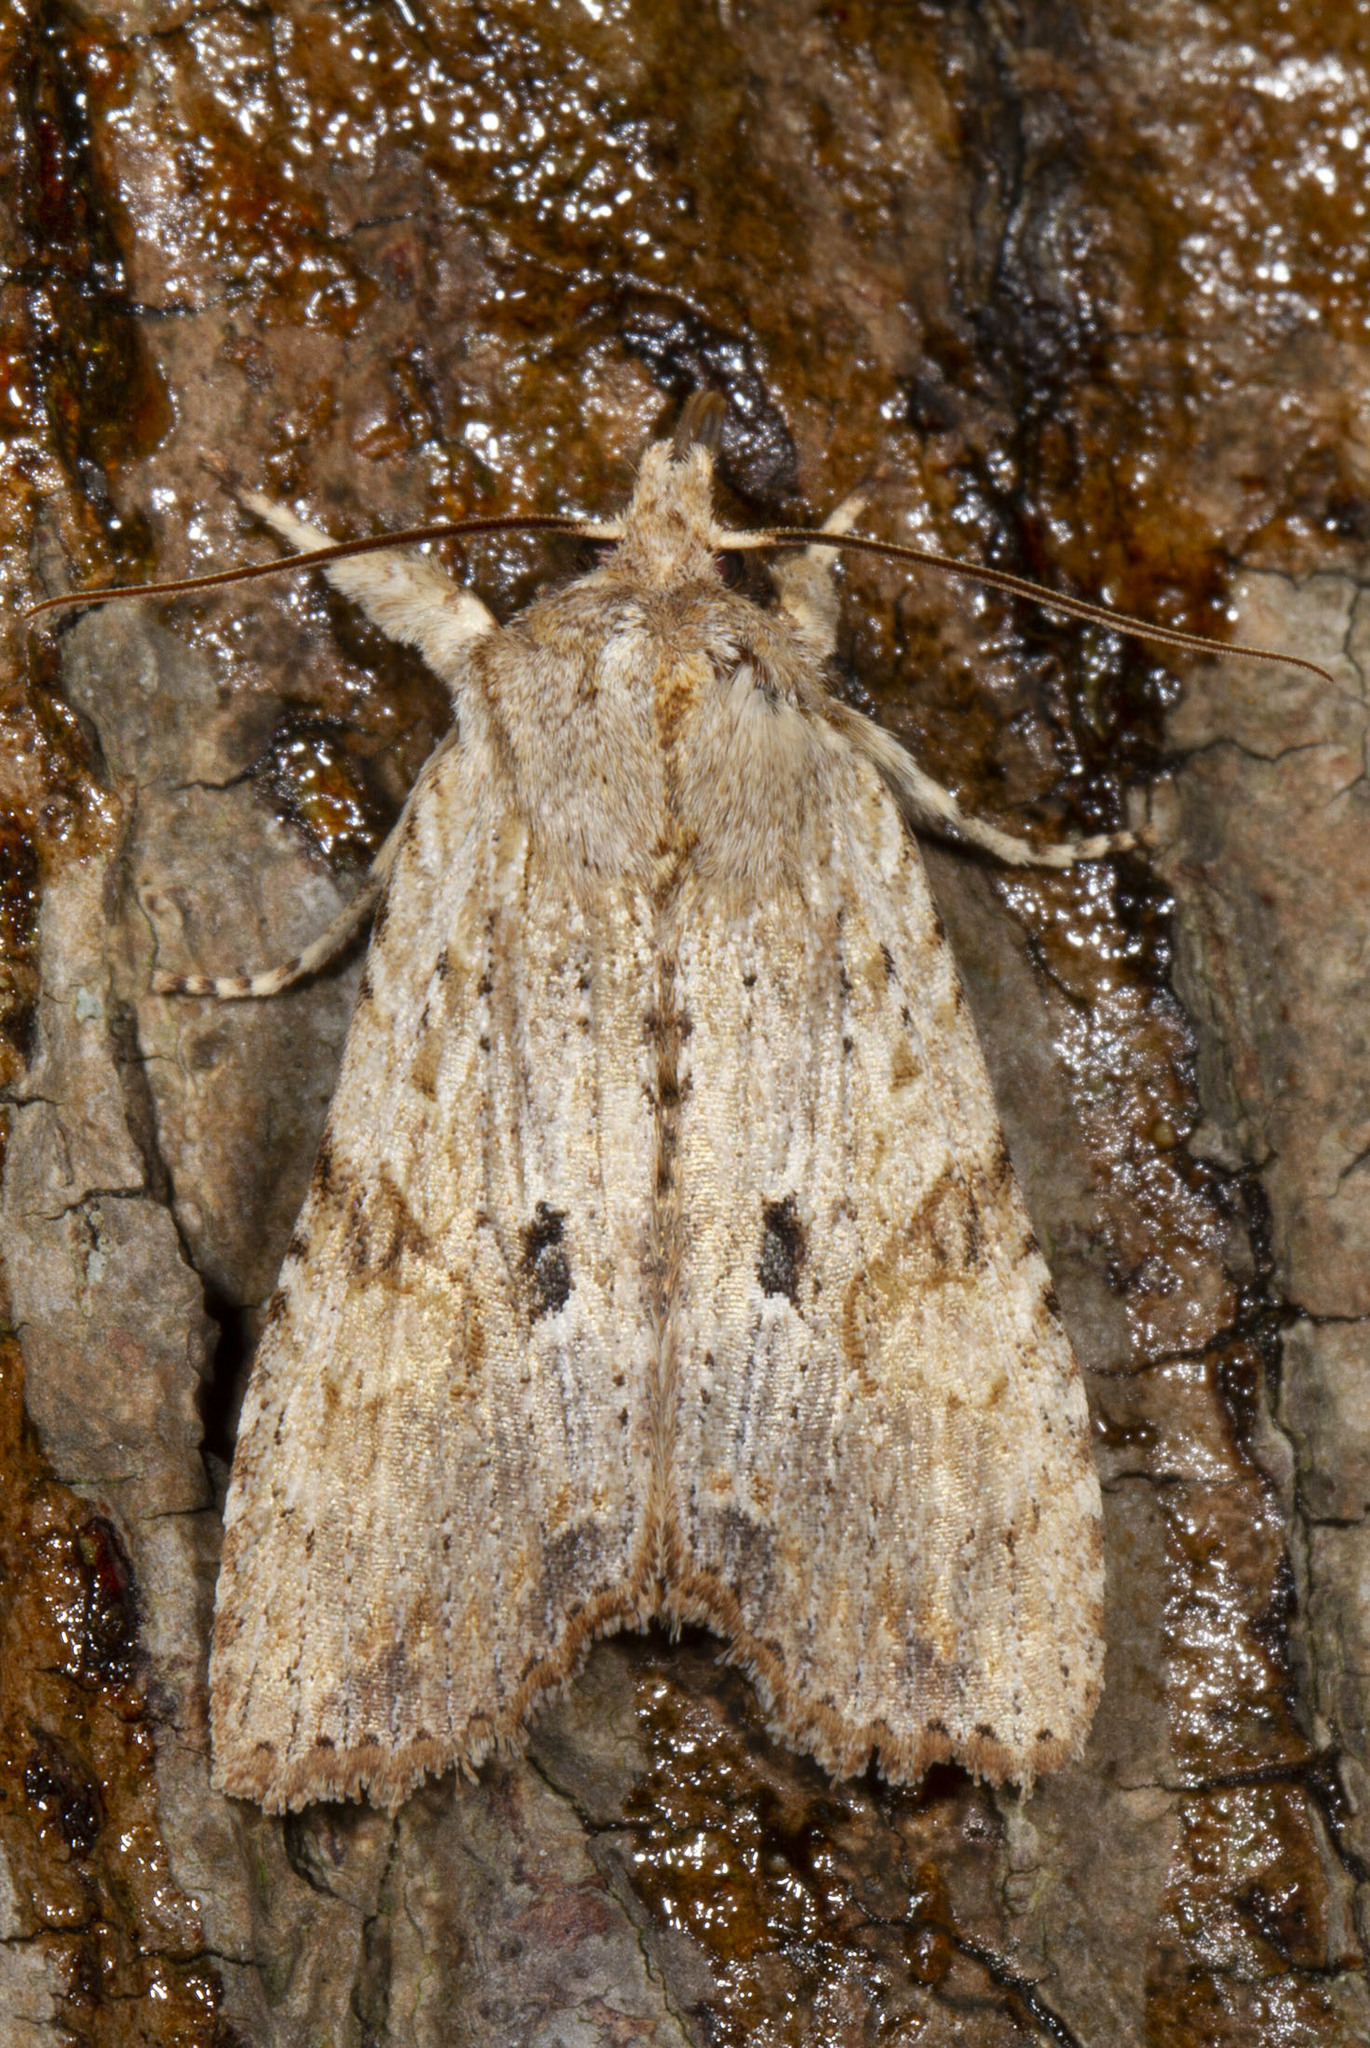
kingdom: Animalia
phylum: Arthropoda
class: Insecta
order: Lepidoptera
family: Noctuidae
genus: Lithophane
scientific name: Lithophane patefacta
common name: Dimorphic pinion moth
